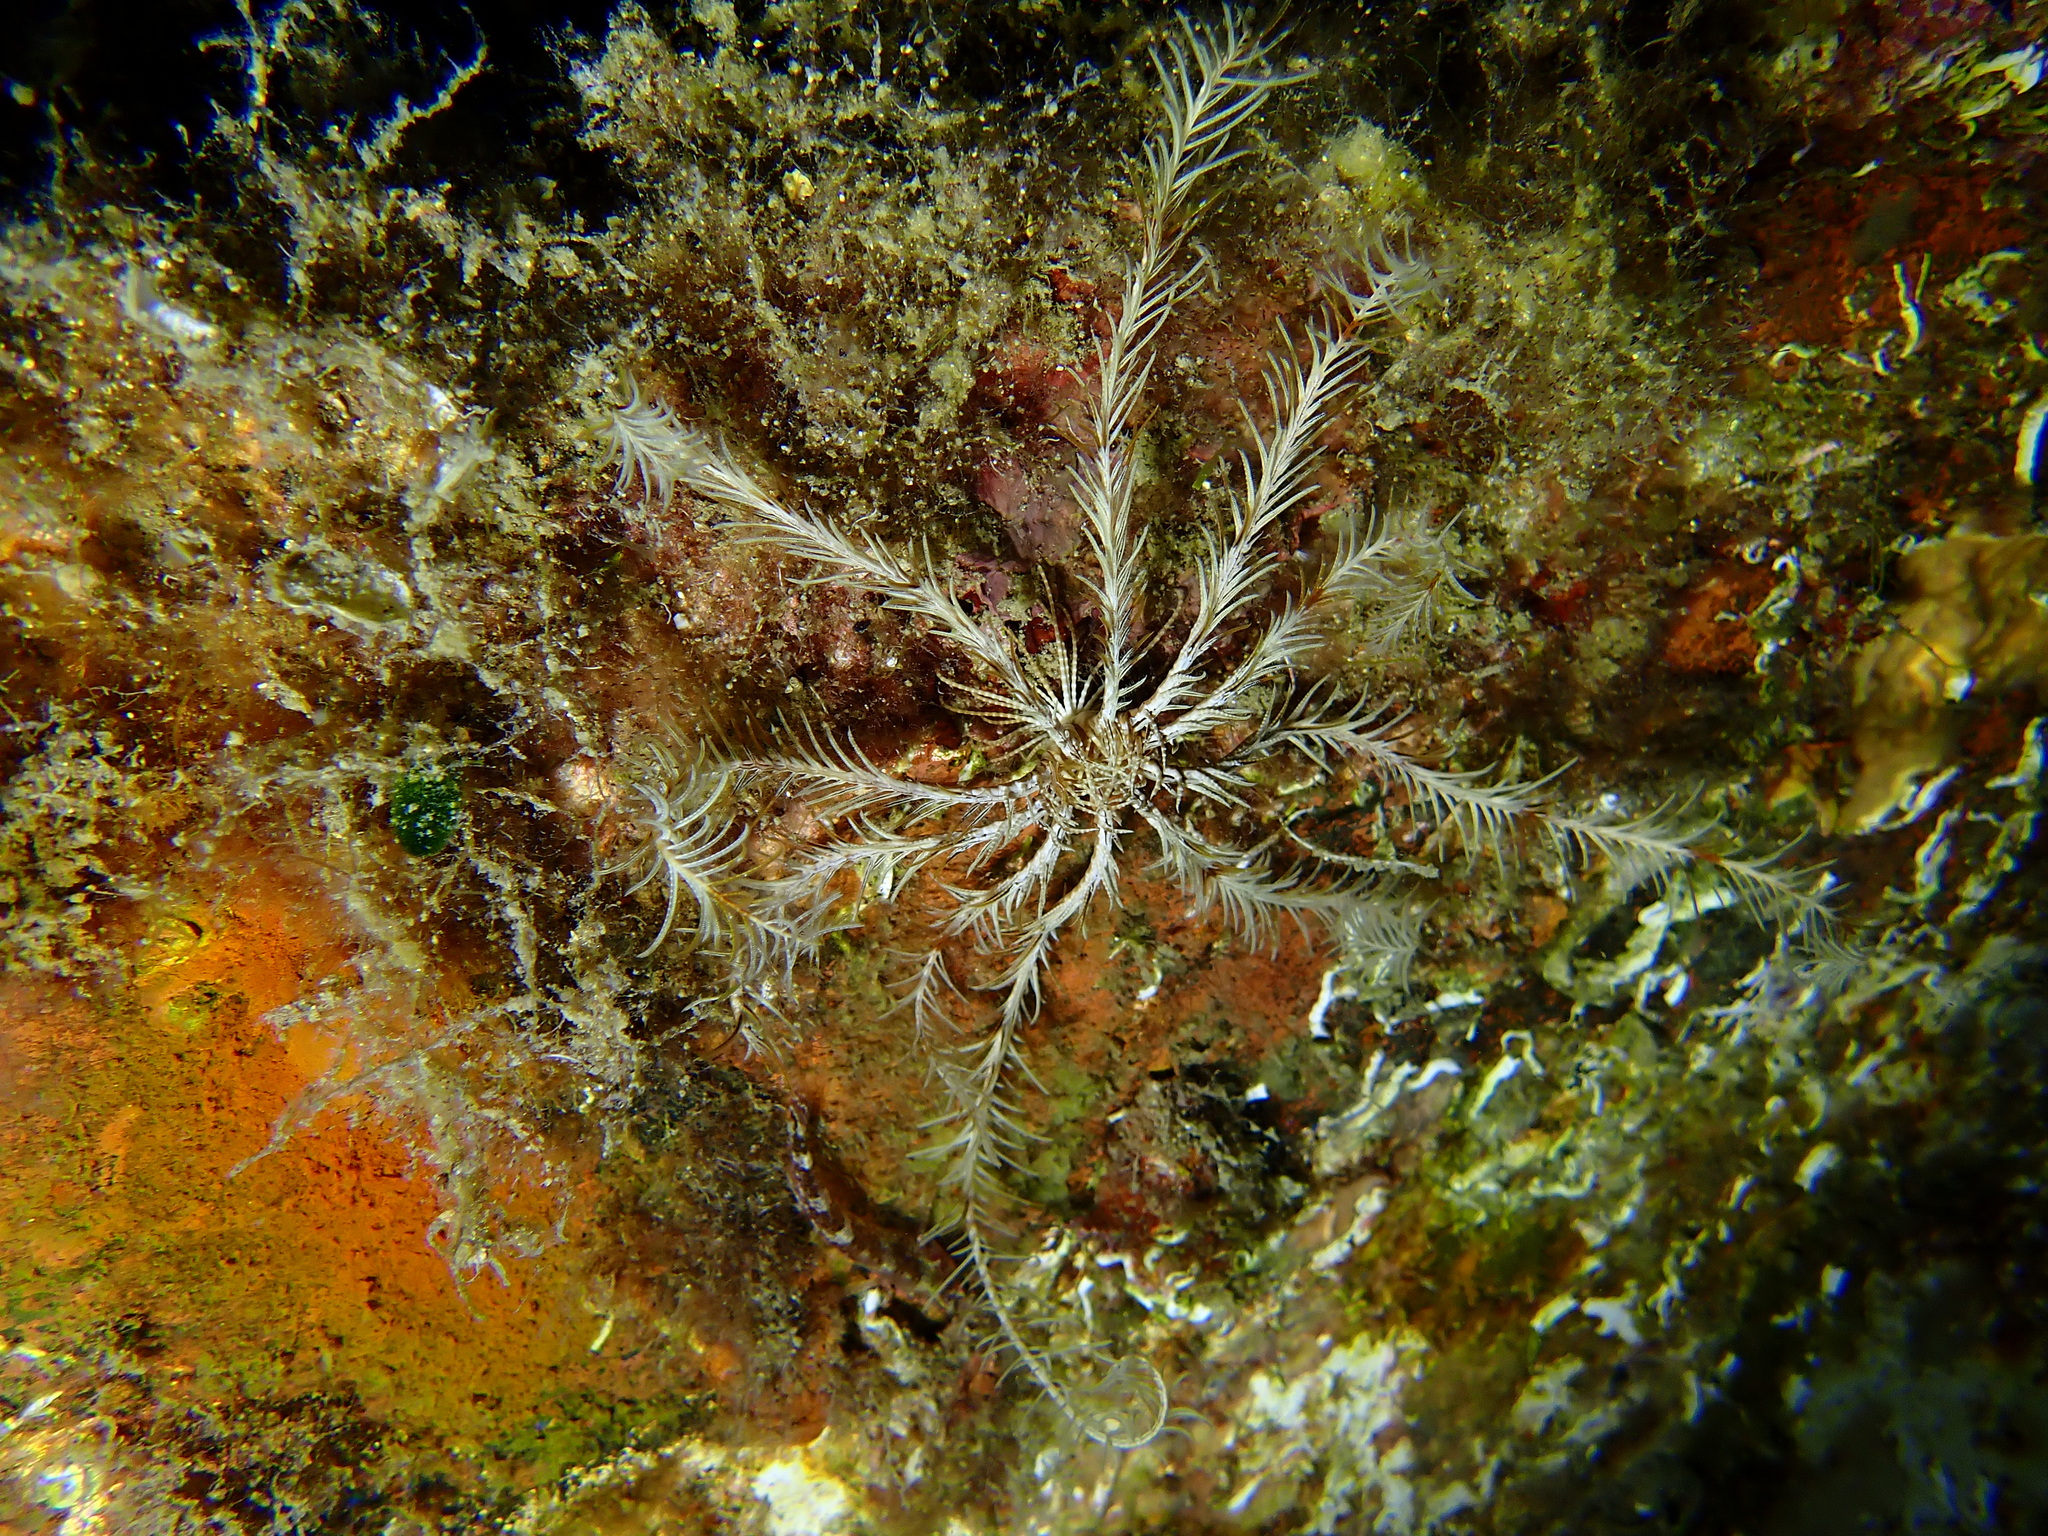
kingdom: Animalia
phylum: Echinodermata
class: Crinoidea
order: Comatulida
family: Antedonidae
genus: Antedon
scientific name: Antedon mediterranea
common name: Feather star
